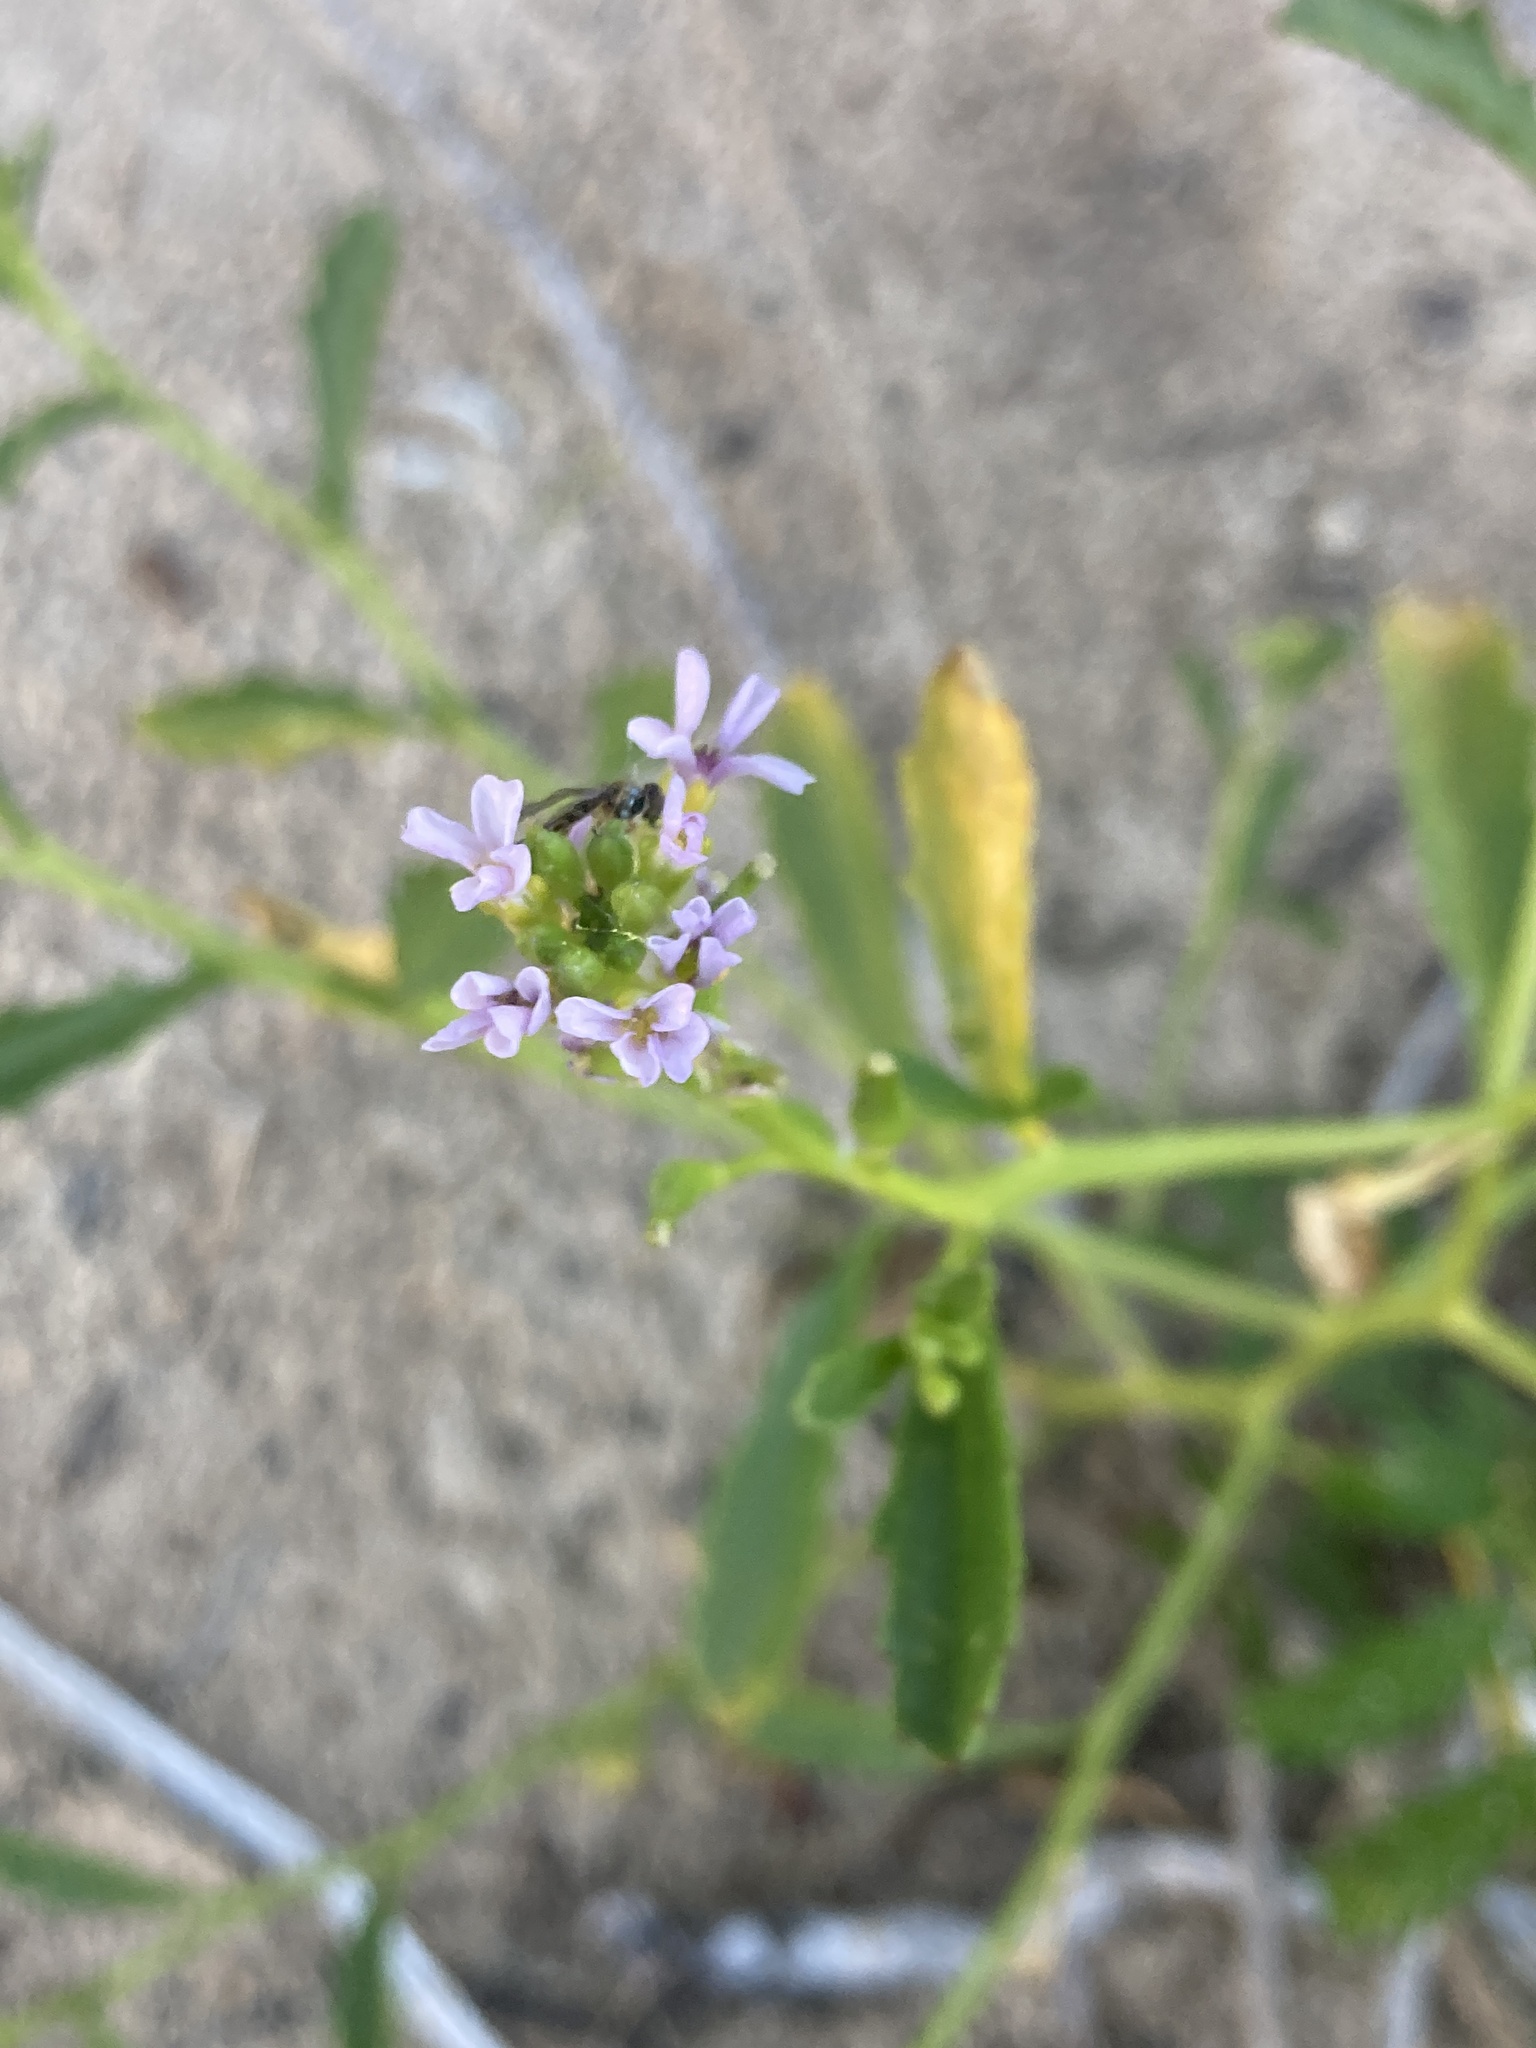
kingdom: Plantae
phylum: Tracheophyta
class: Magnoliopsida
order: Brassicales
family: Brassicaceae
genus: Cakile
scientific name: Cakile edentula
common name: American sea rocket
